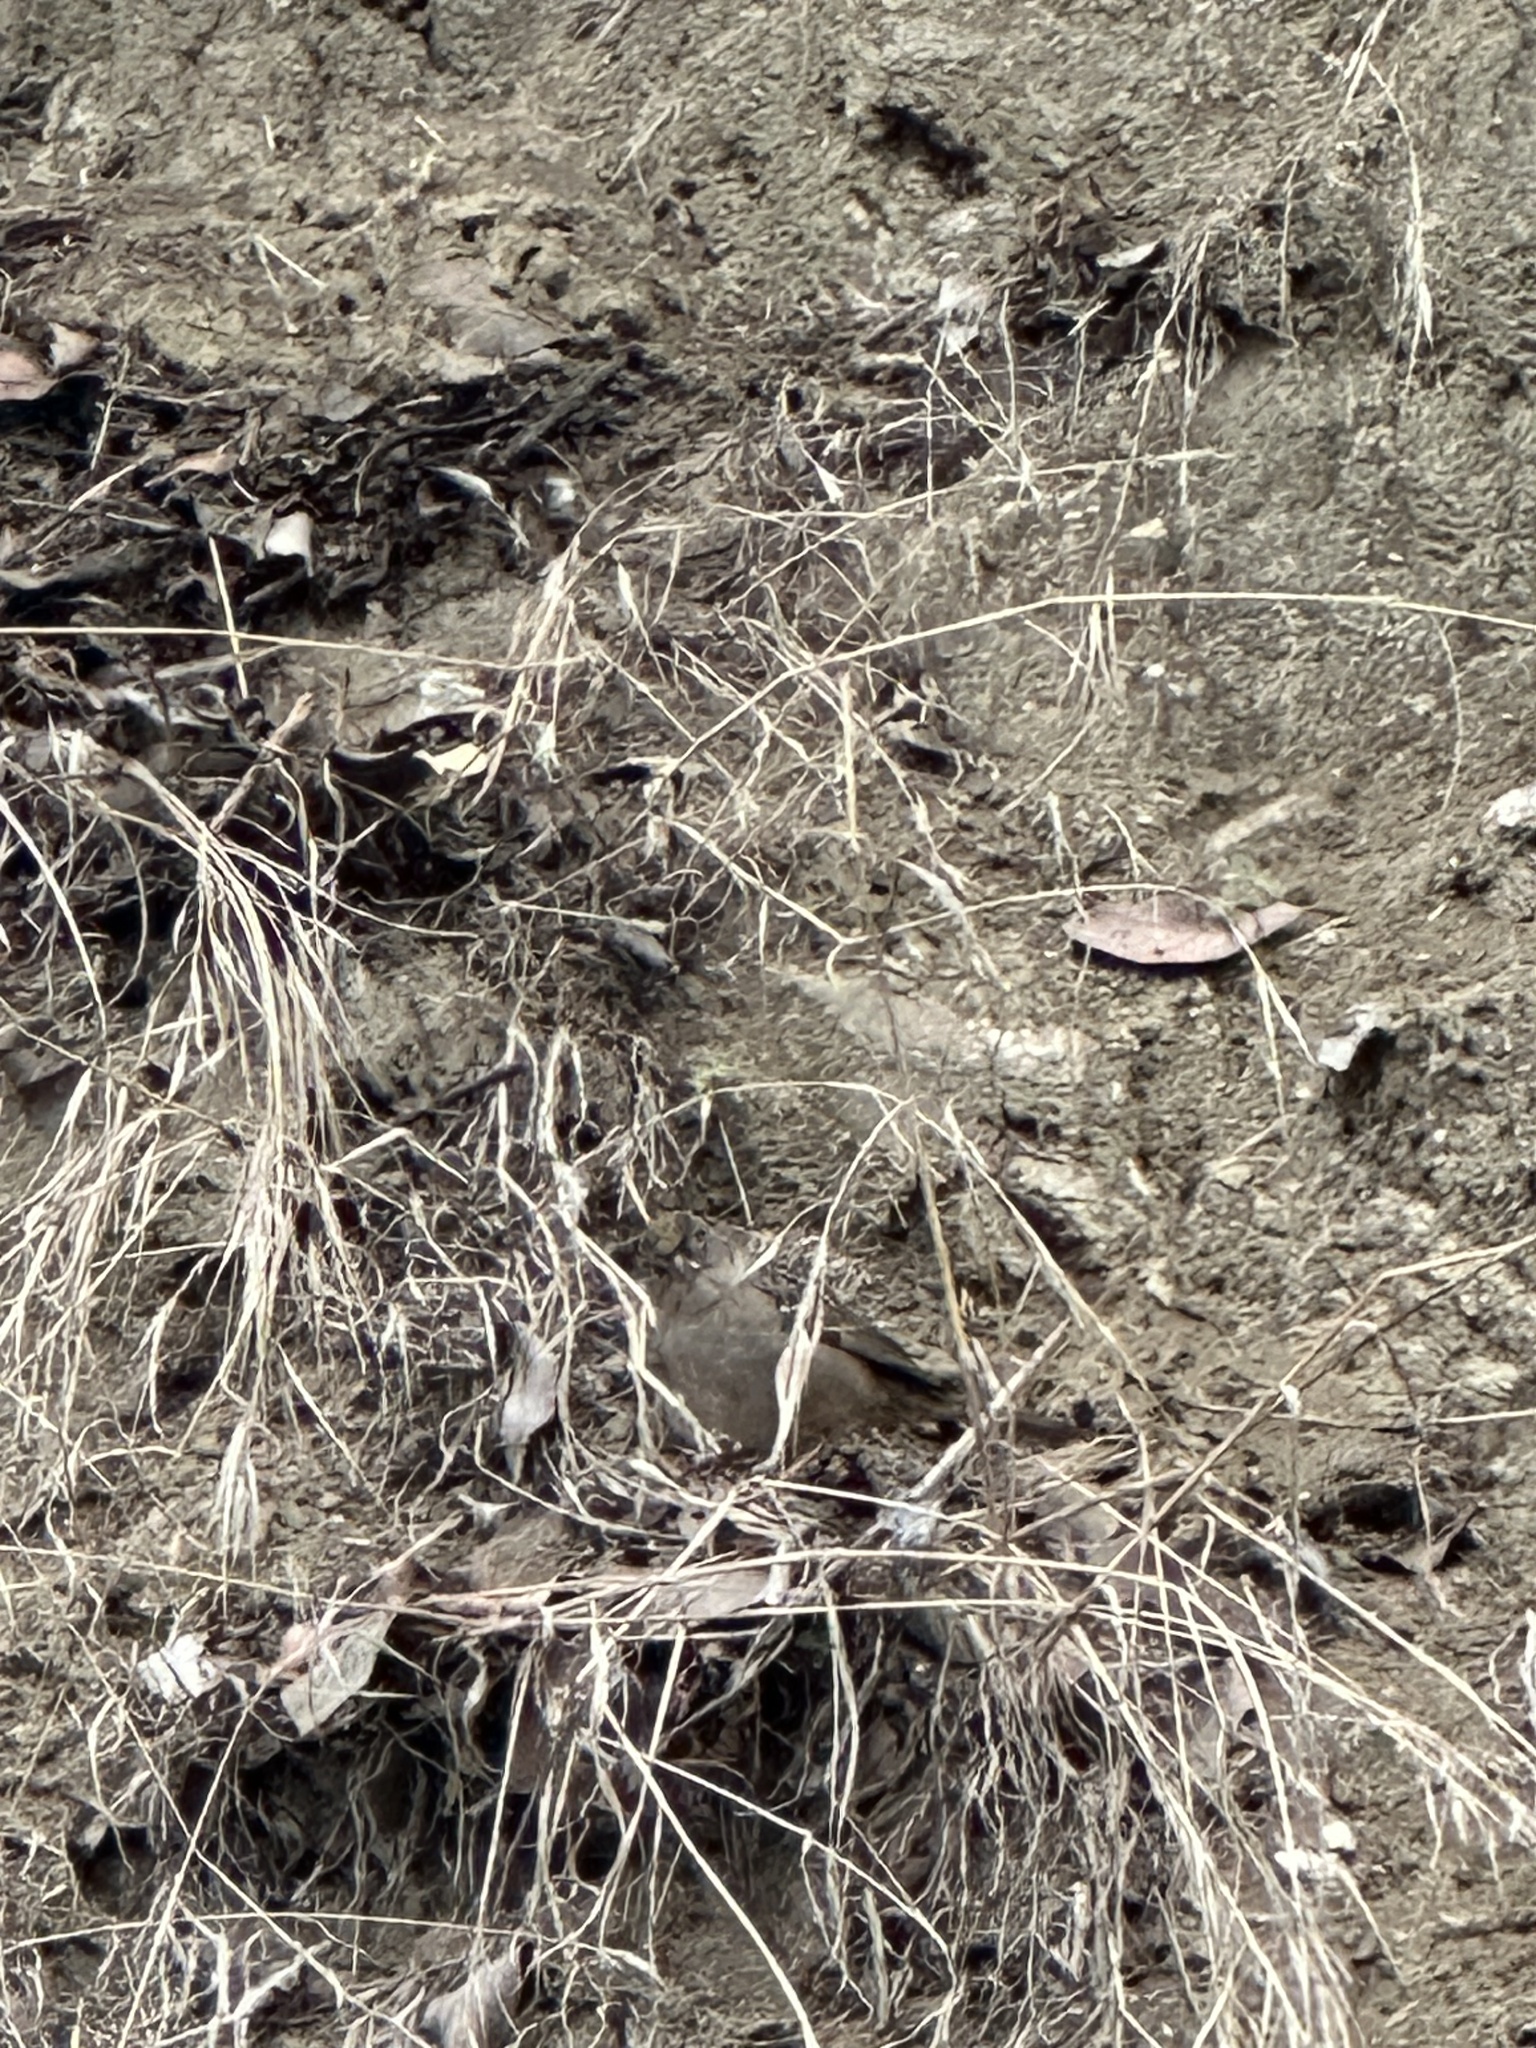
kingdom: Animalia
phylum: Chordata
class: Aves
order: Passeriformes
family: Passerellidae
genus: Zonotrichia
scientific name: Zonotrichia atricapilla
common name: Golden-crowned sparrow
